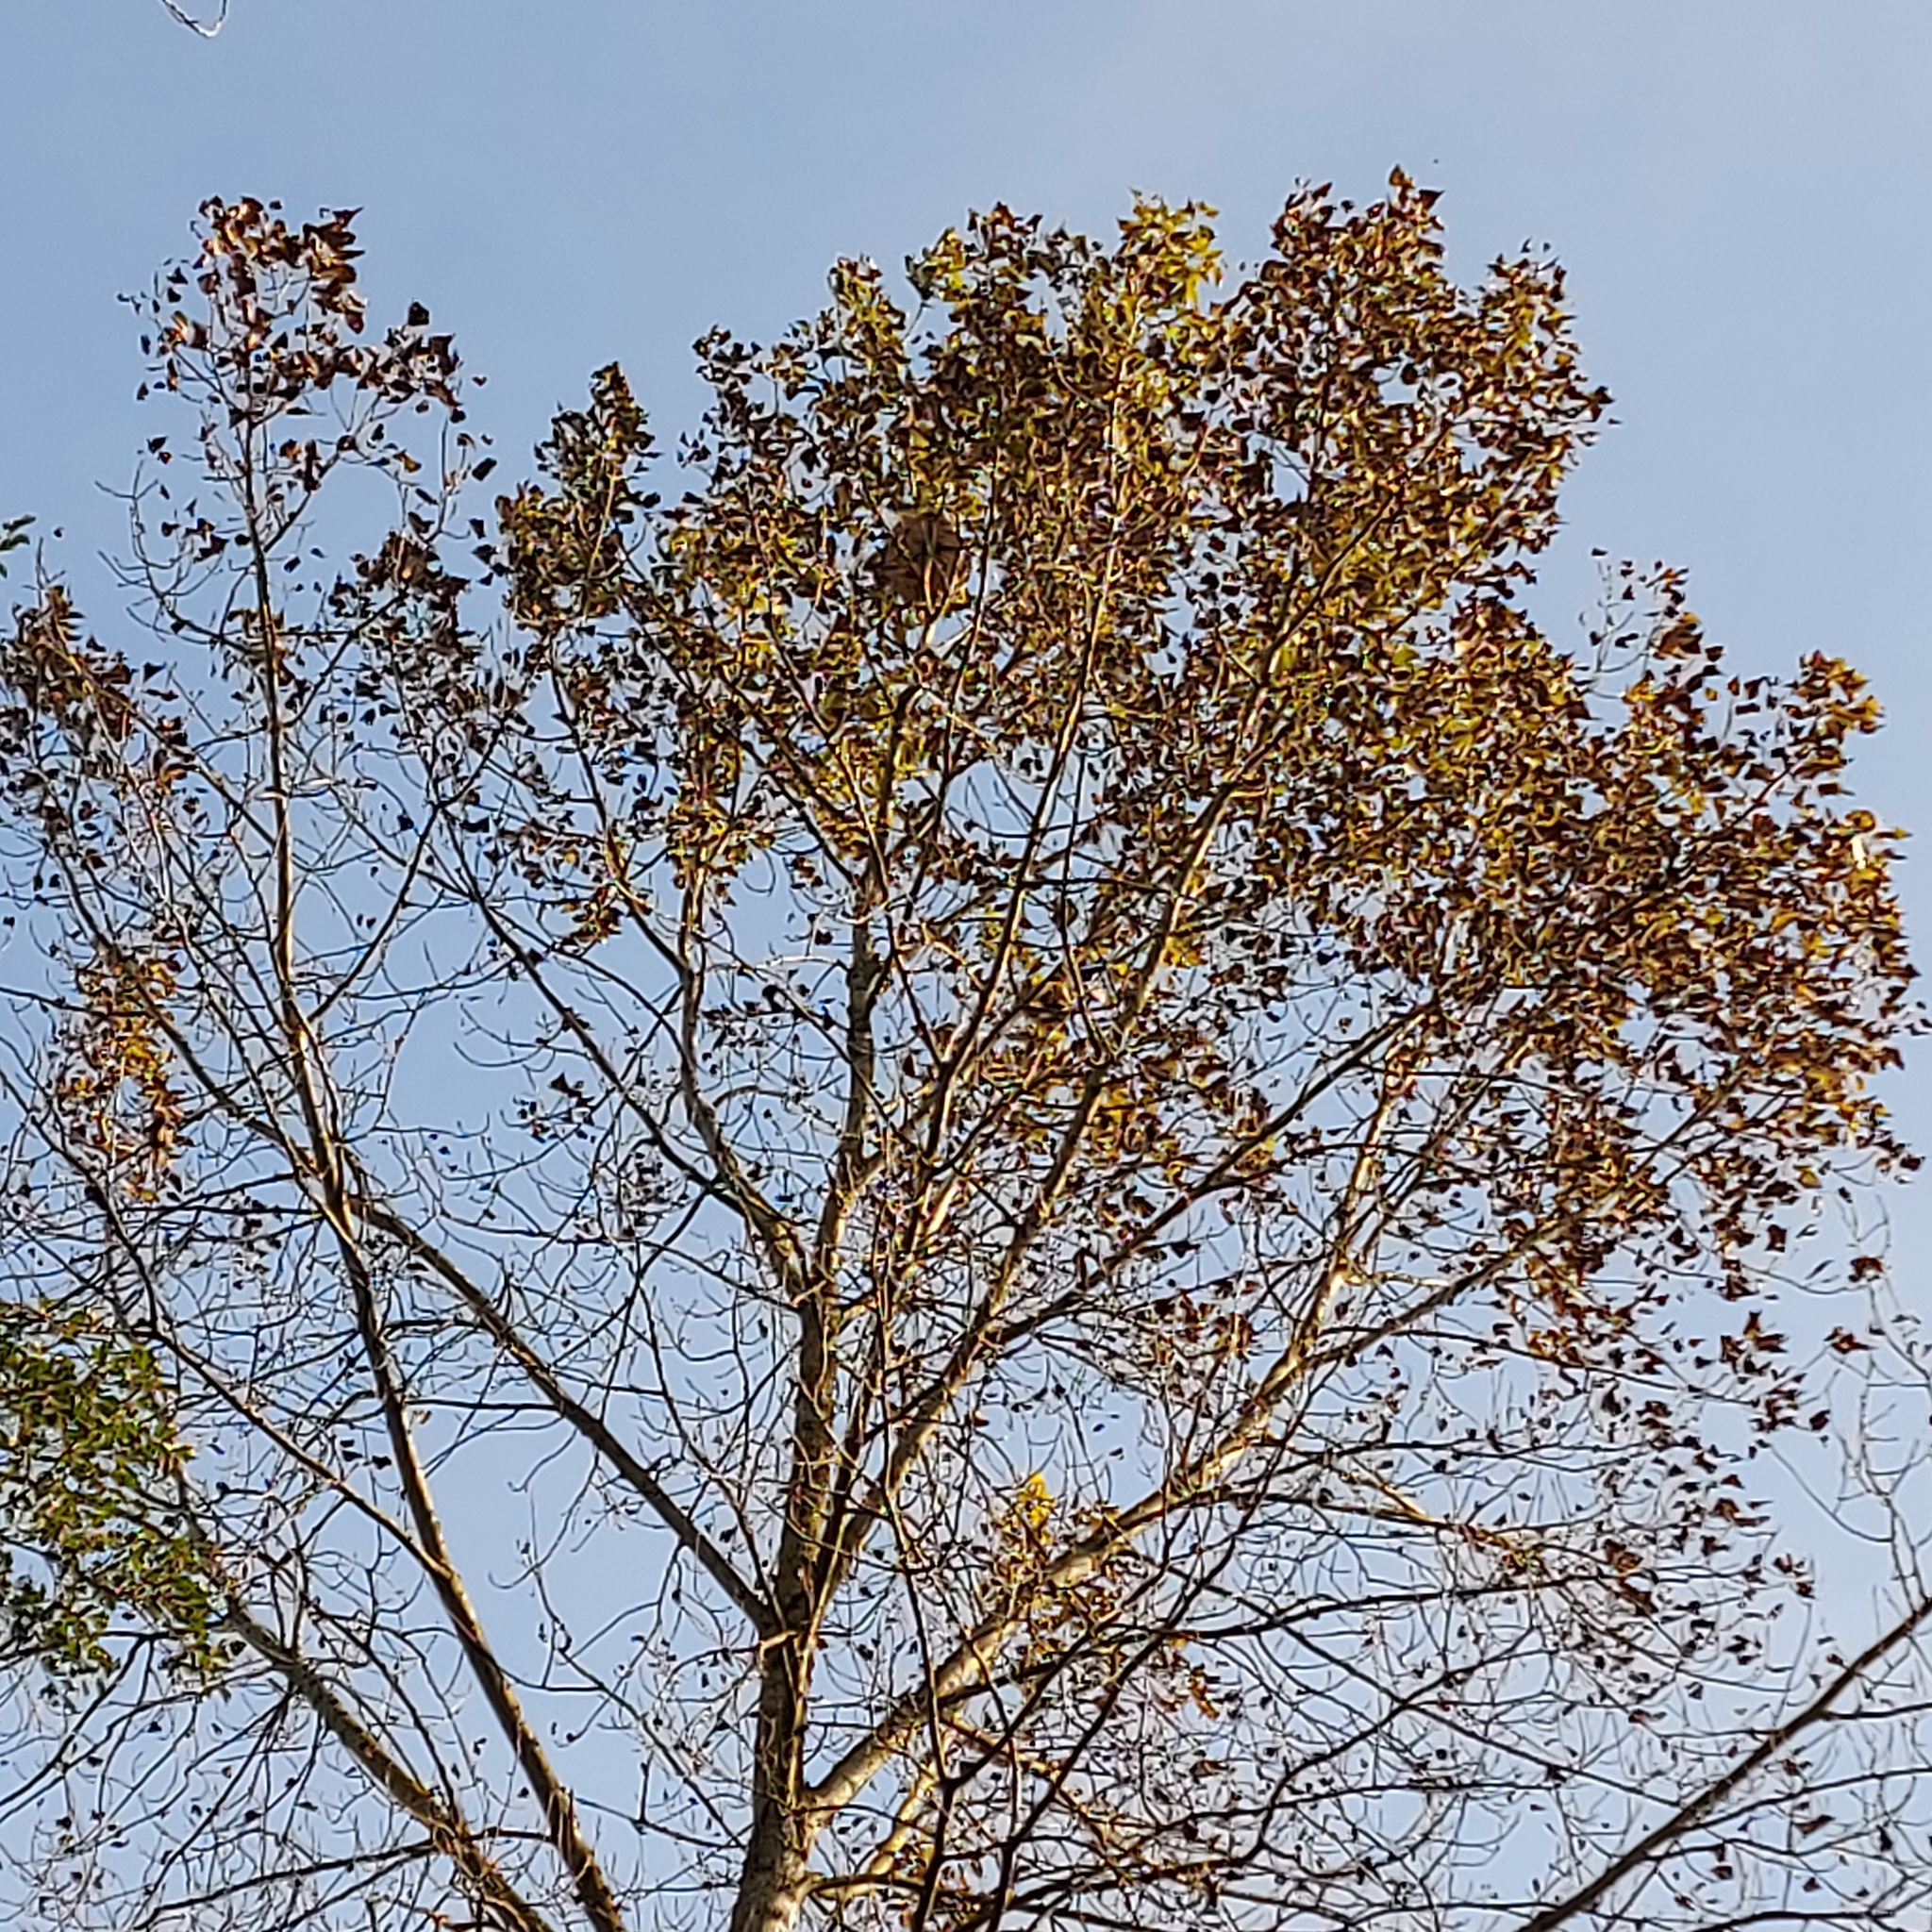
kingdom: Animalia
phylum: Arthropoda
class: Insecta
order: Hymenoptera
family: Vespidae
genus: Vespa
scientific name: Vespa velutina
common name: Asian hornet
